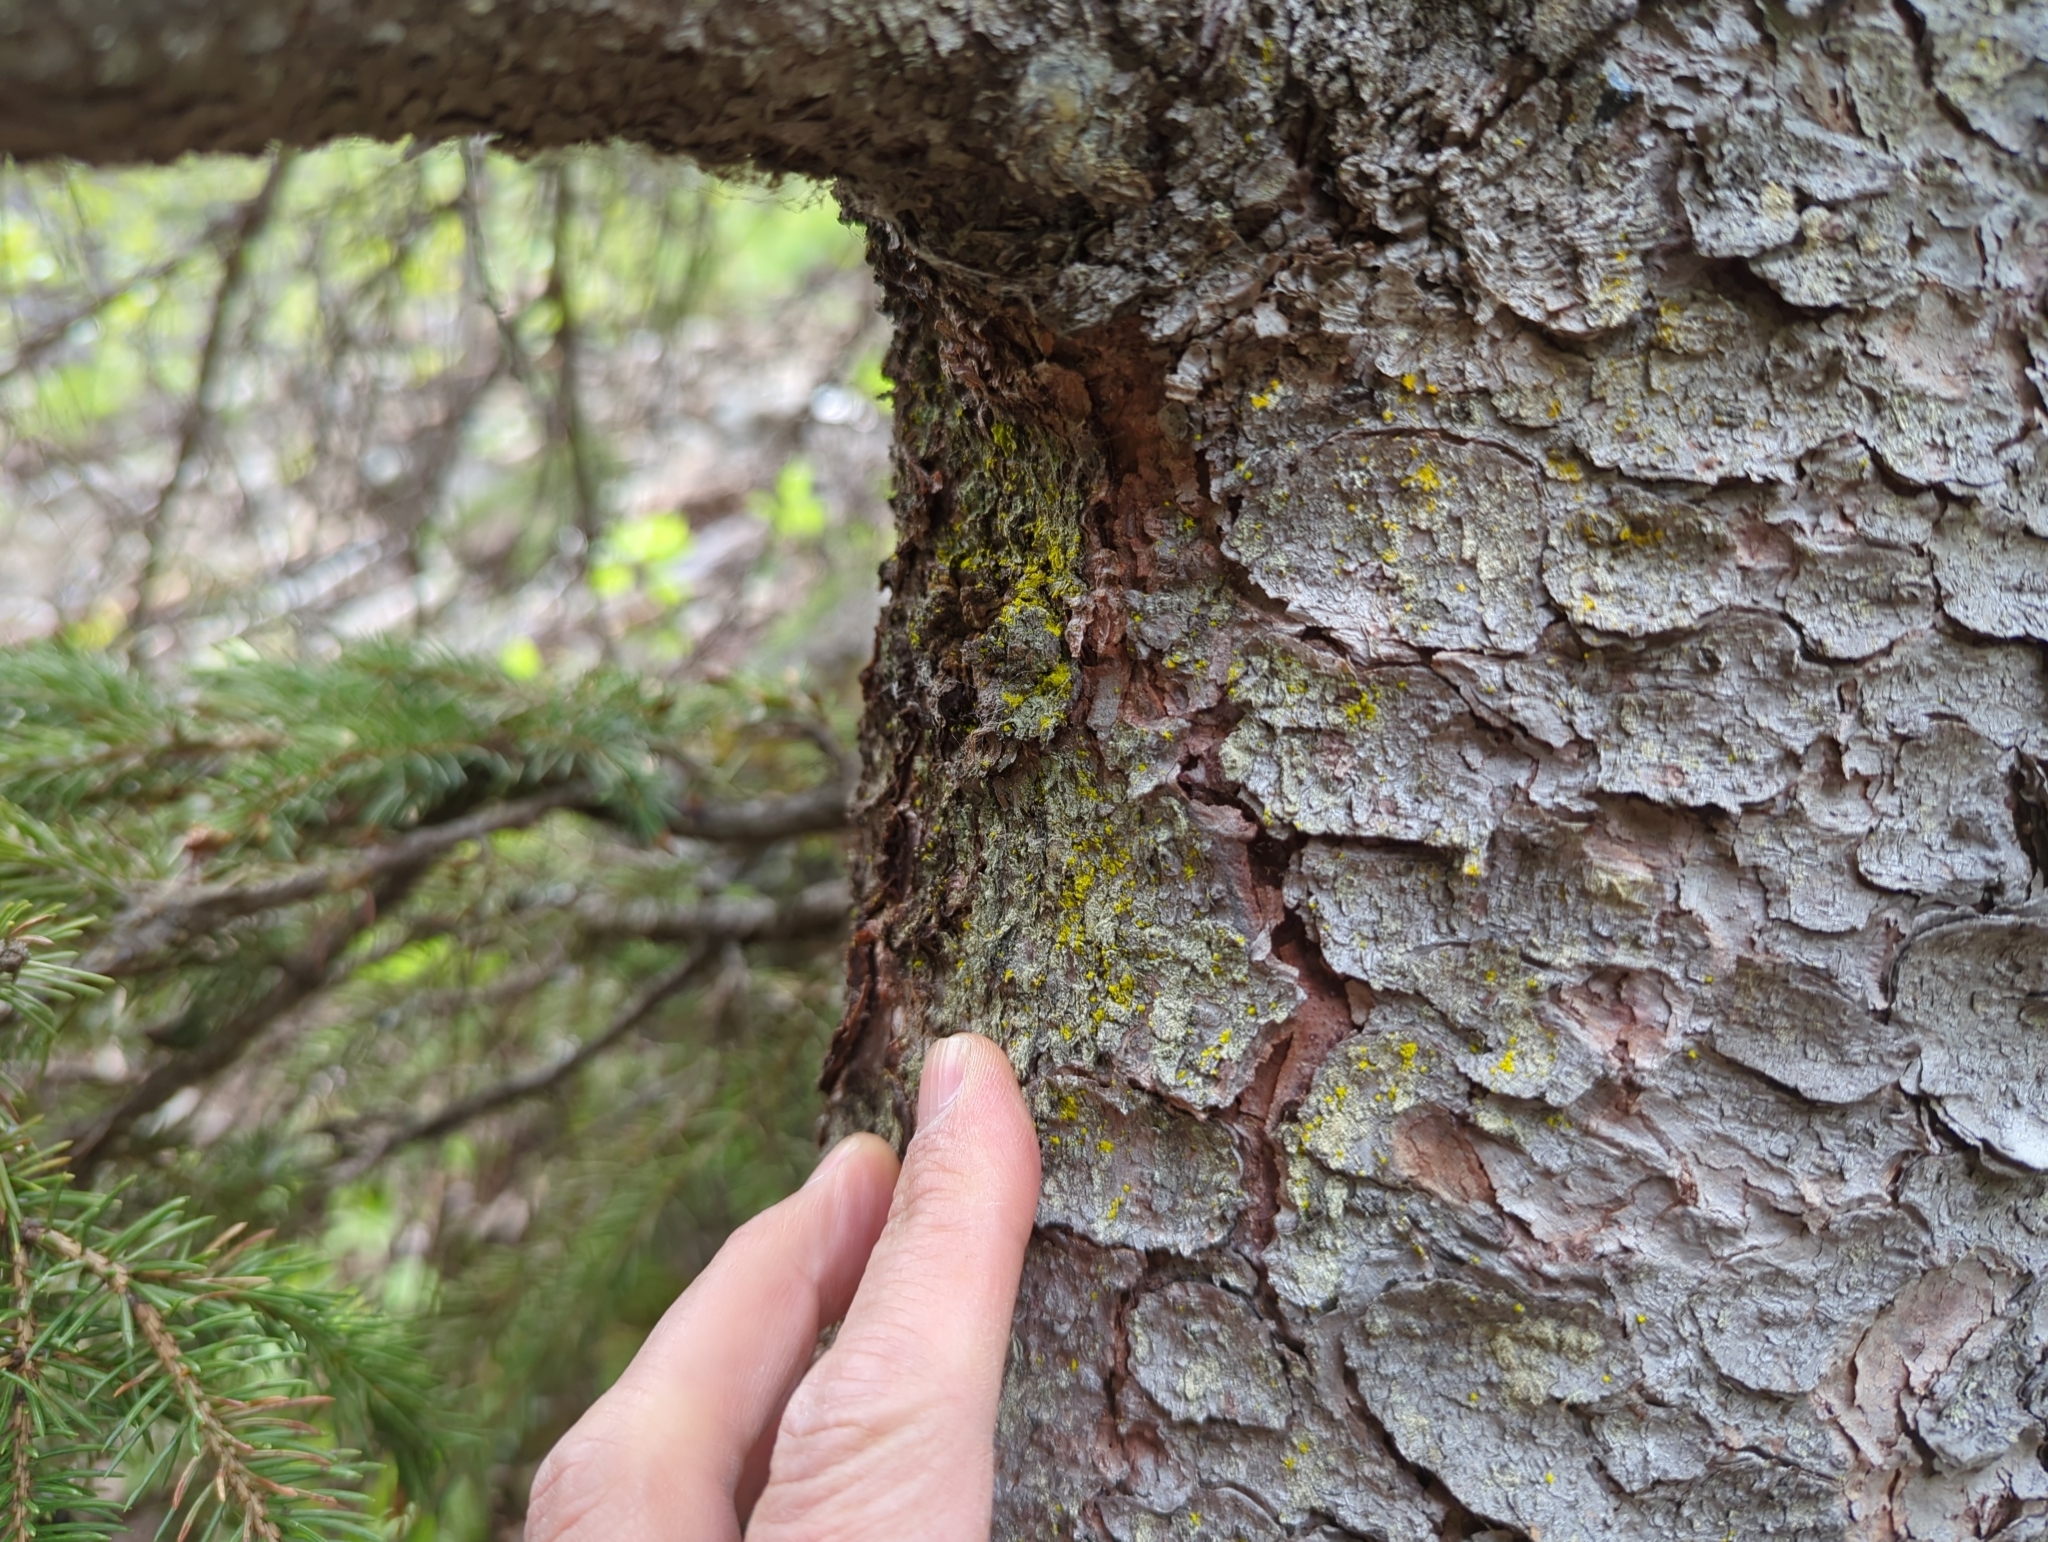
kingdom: Fungi
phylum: Ascomycota
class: Arthoniomycetes
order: Arthoniales
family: Chrysotrichaceae
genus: Chrysothrix
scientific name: Chrysothrix candelaris
